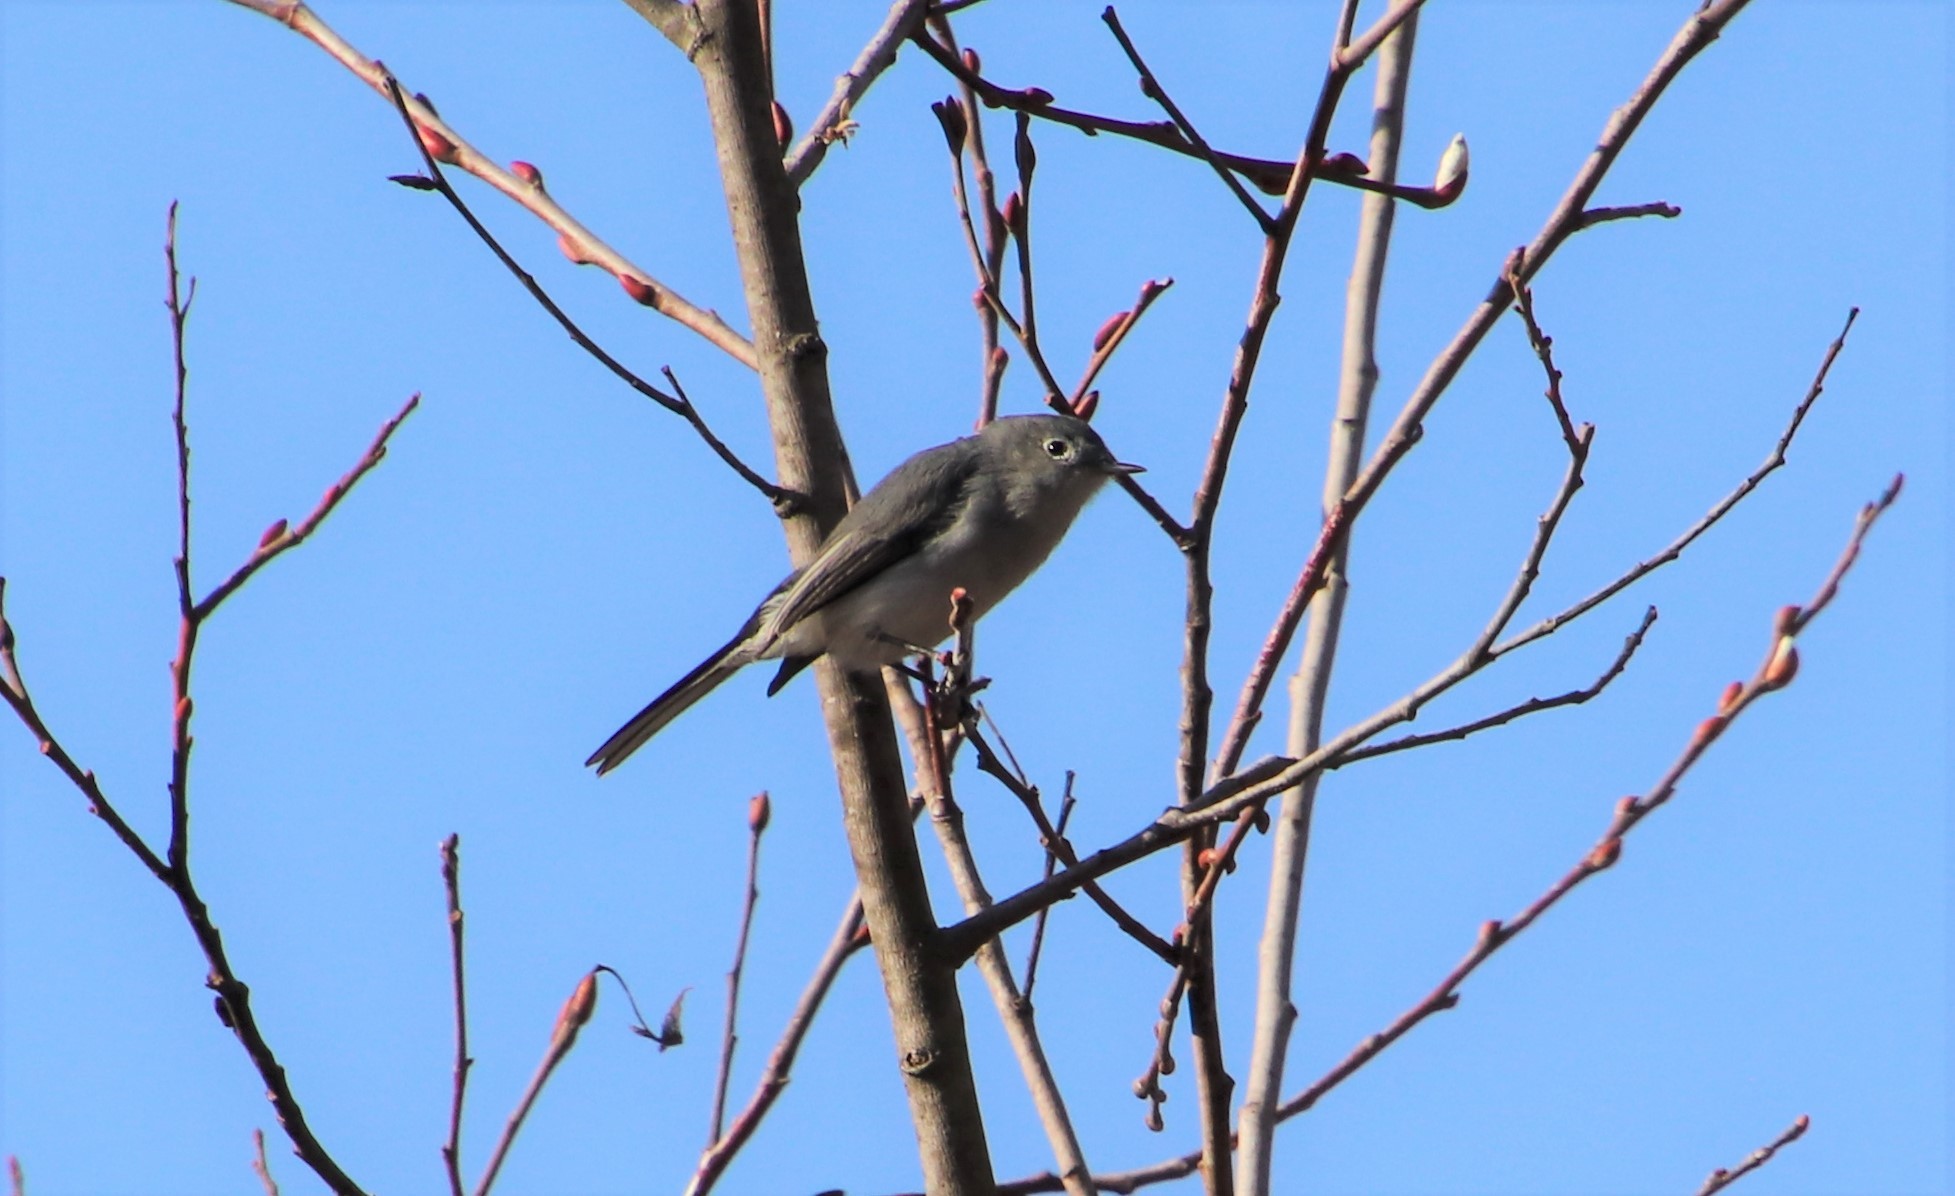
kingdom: Animalia
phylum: Chordata
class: Aves
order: Passeriformes
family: Polioptilidae
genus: Polioptila
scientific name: Polioptila caerulea
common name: Blue-gray gnatcatcher
